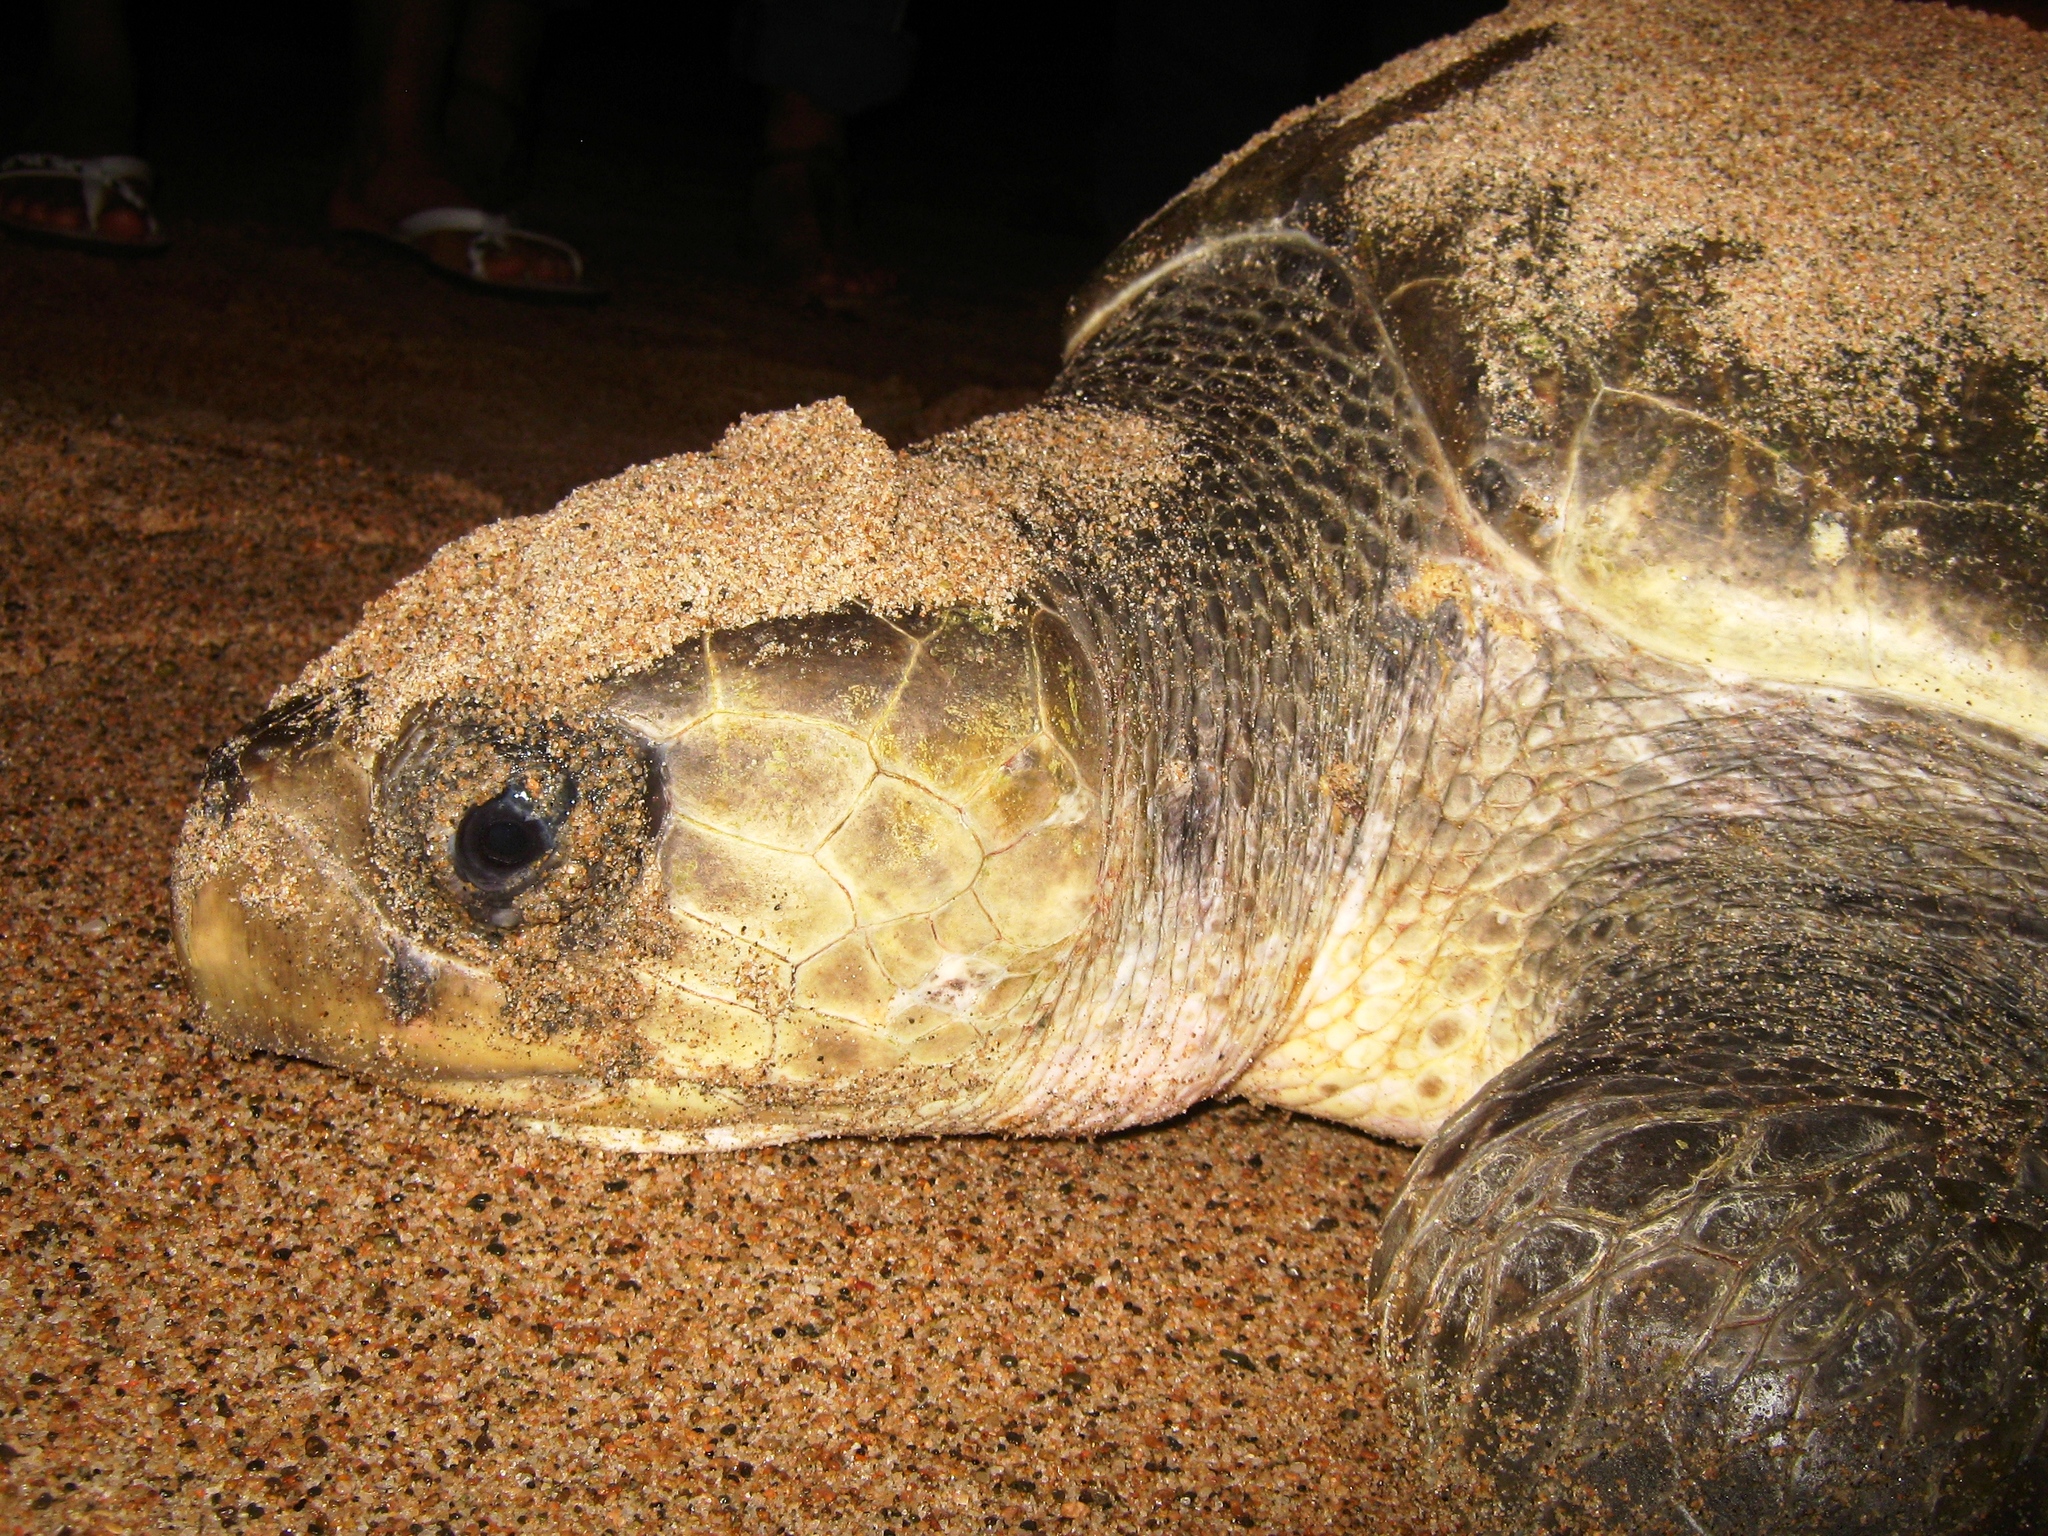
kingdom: Animalia
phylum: Chordata
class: Testudines
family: Cheloniidae
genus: Lepidochelys
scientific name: Lepidochelys olivacea
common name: Olive ridley
